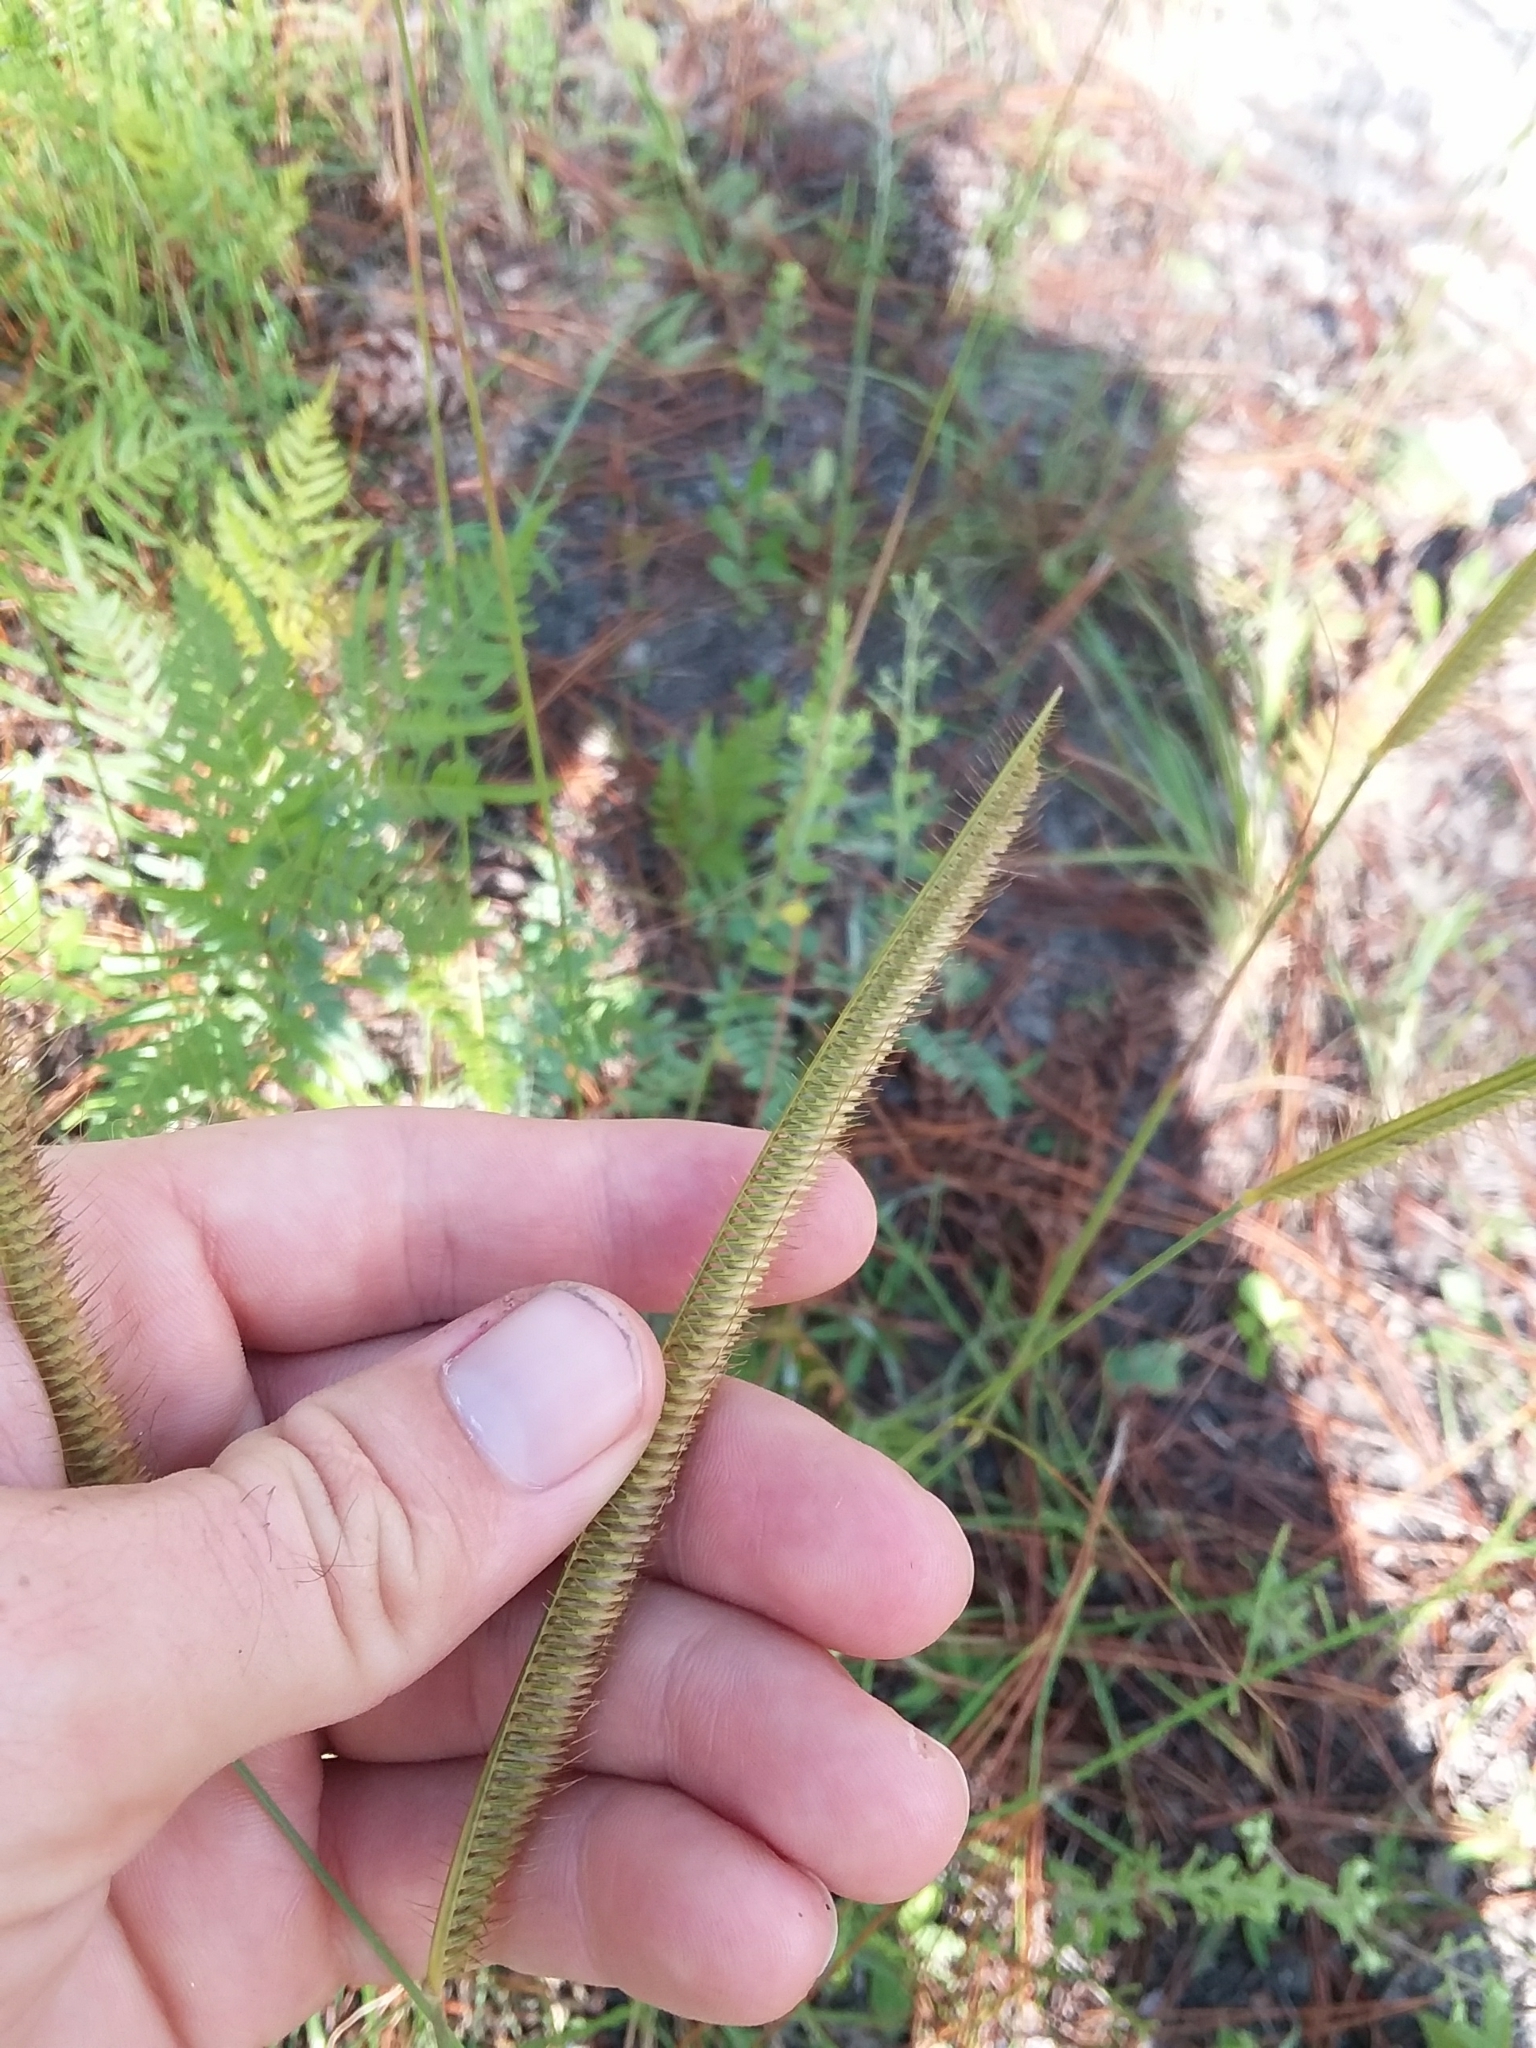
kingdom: Plantae
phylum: Tracheophyta
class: Liliopsida
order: Poales
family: Poaceae
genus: Ctenium
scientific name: Ctenium aromaticum
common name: Toothache grass
